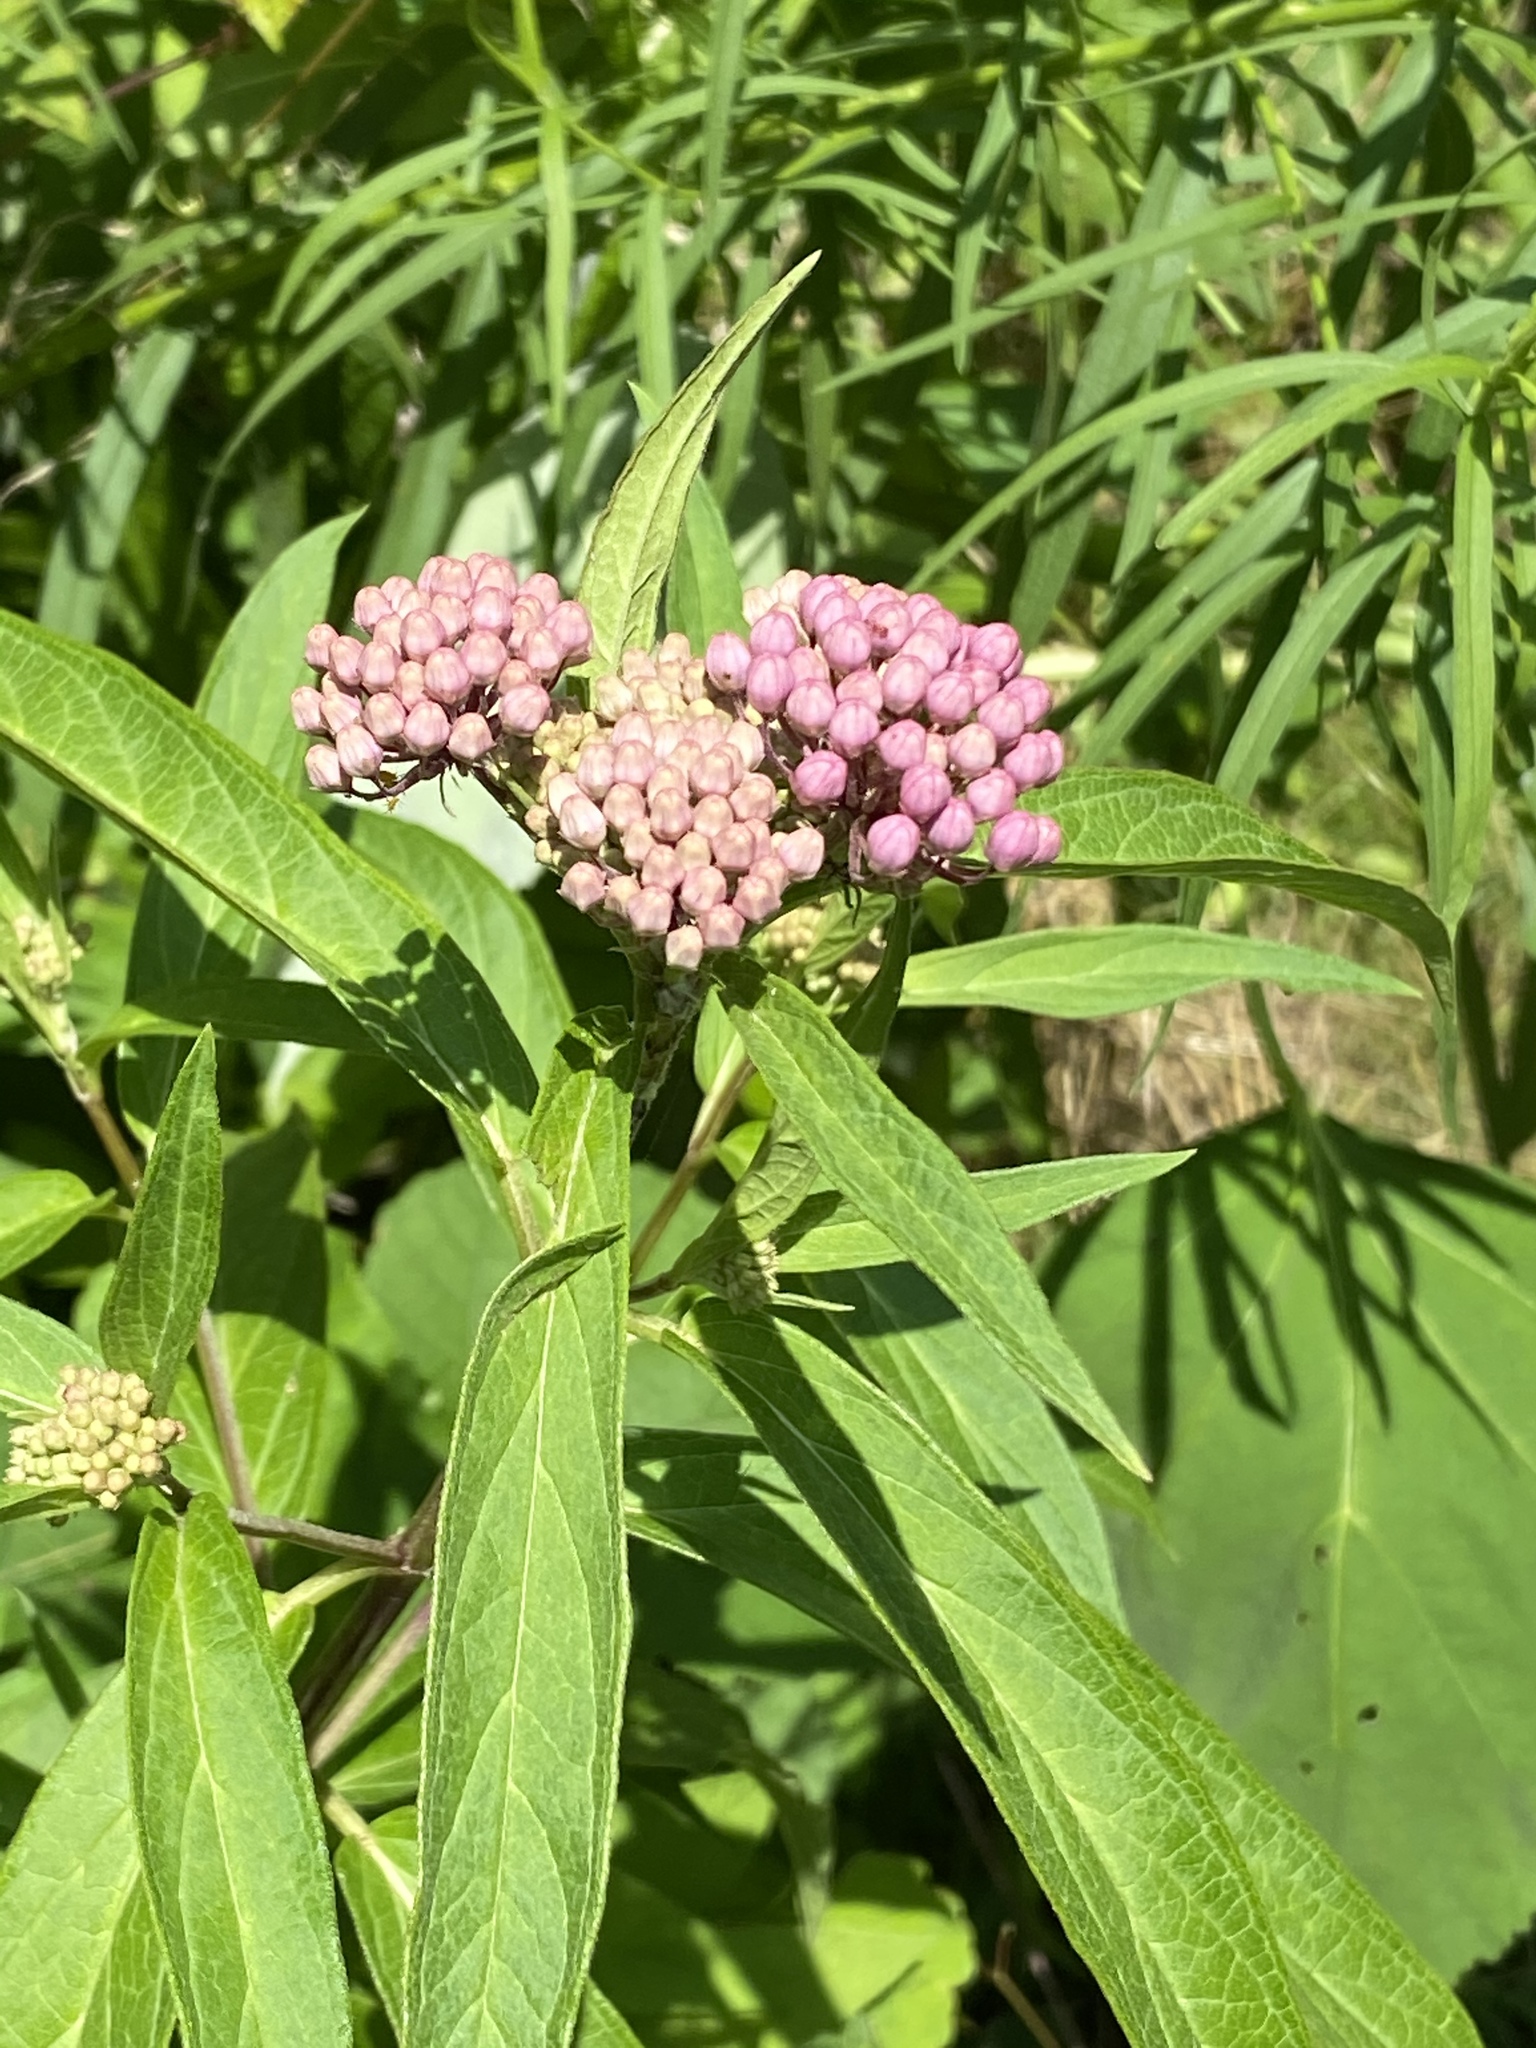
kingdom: Plantae
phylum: Tracheophyta
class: Magnoliopsida
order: Gentianales
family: Apocynaceae
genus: Asclepias
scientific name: Asclepias incarnata
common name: Swamp milkweed
